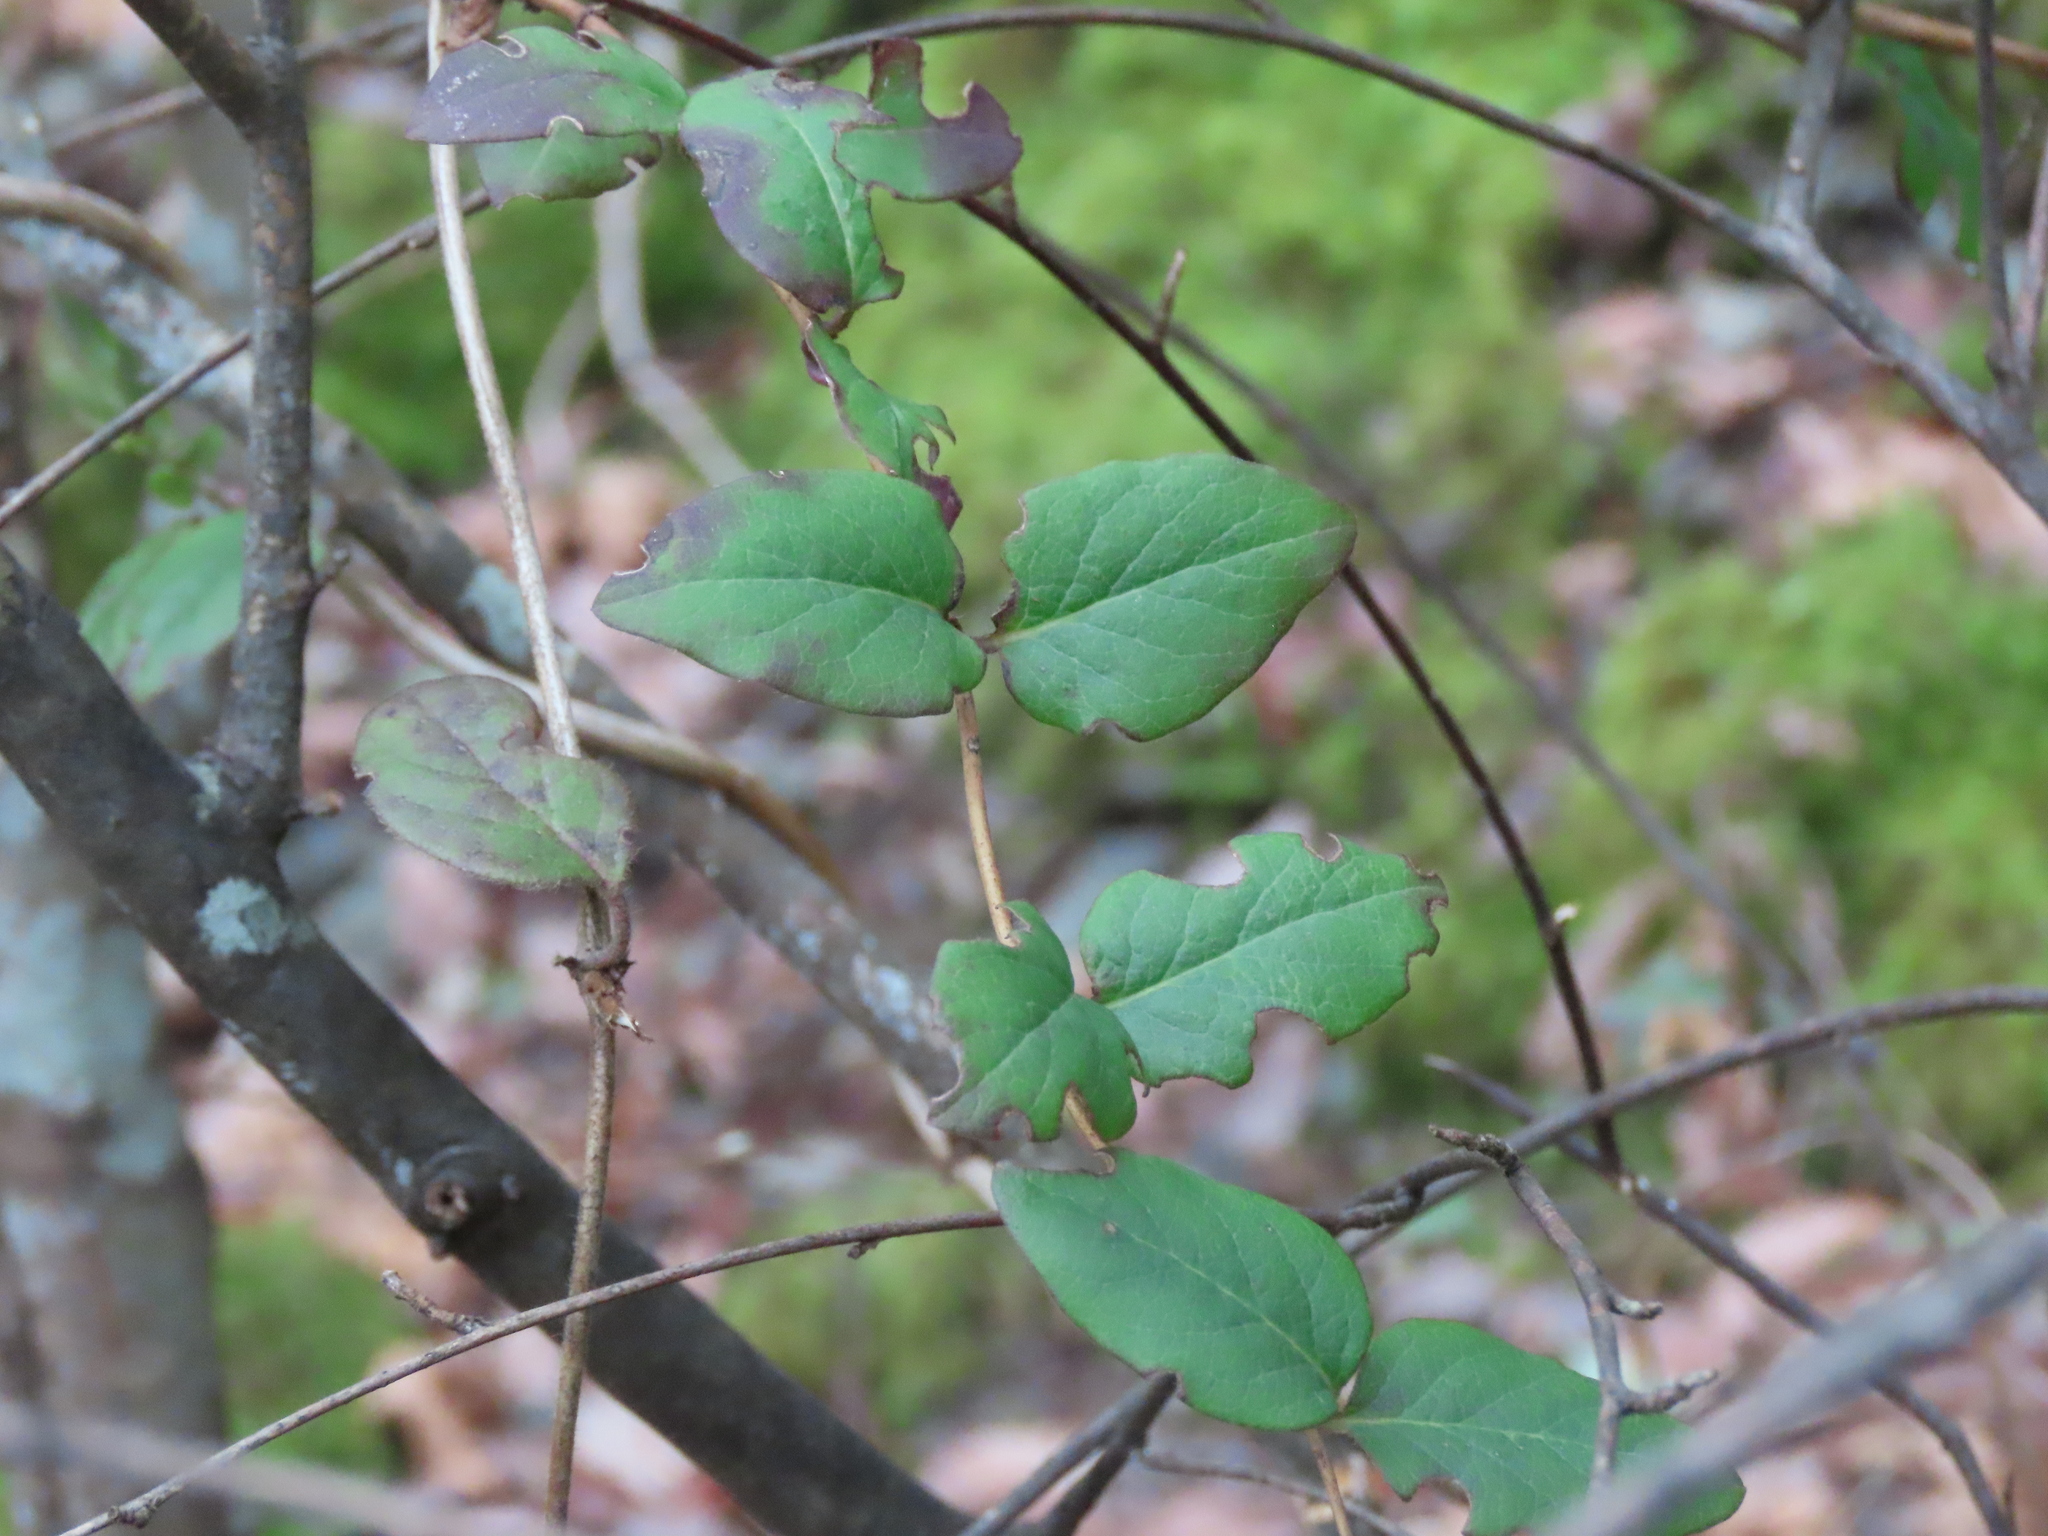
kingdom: Plantae
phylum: Tracheophyta
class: Magnoliopsida
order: Dipsacales
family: Caprifoliaceae
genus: Lonicera
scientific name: Lonicera hispidula
